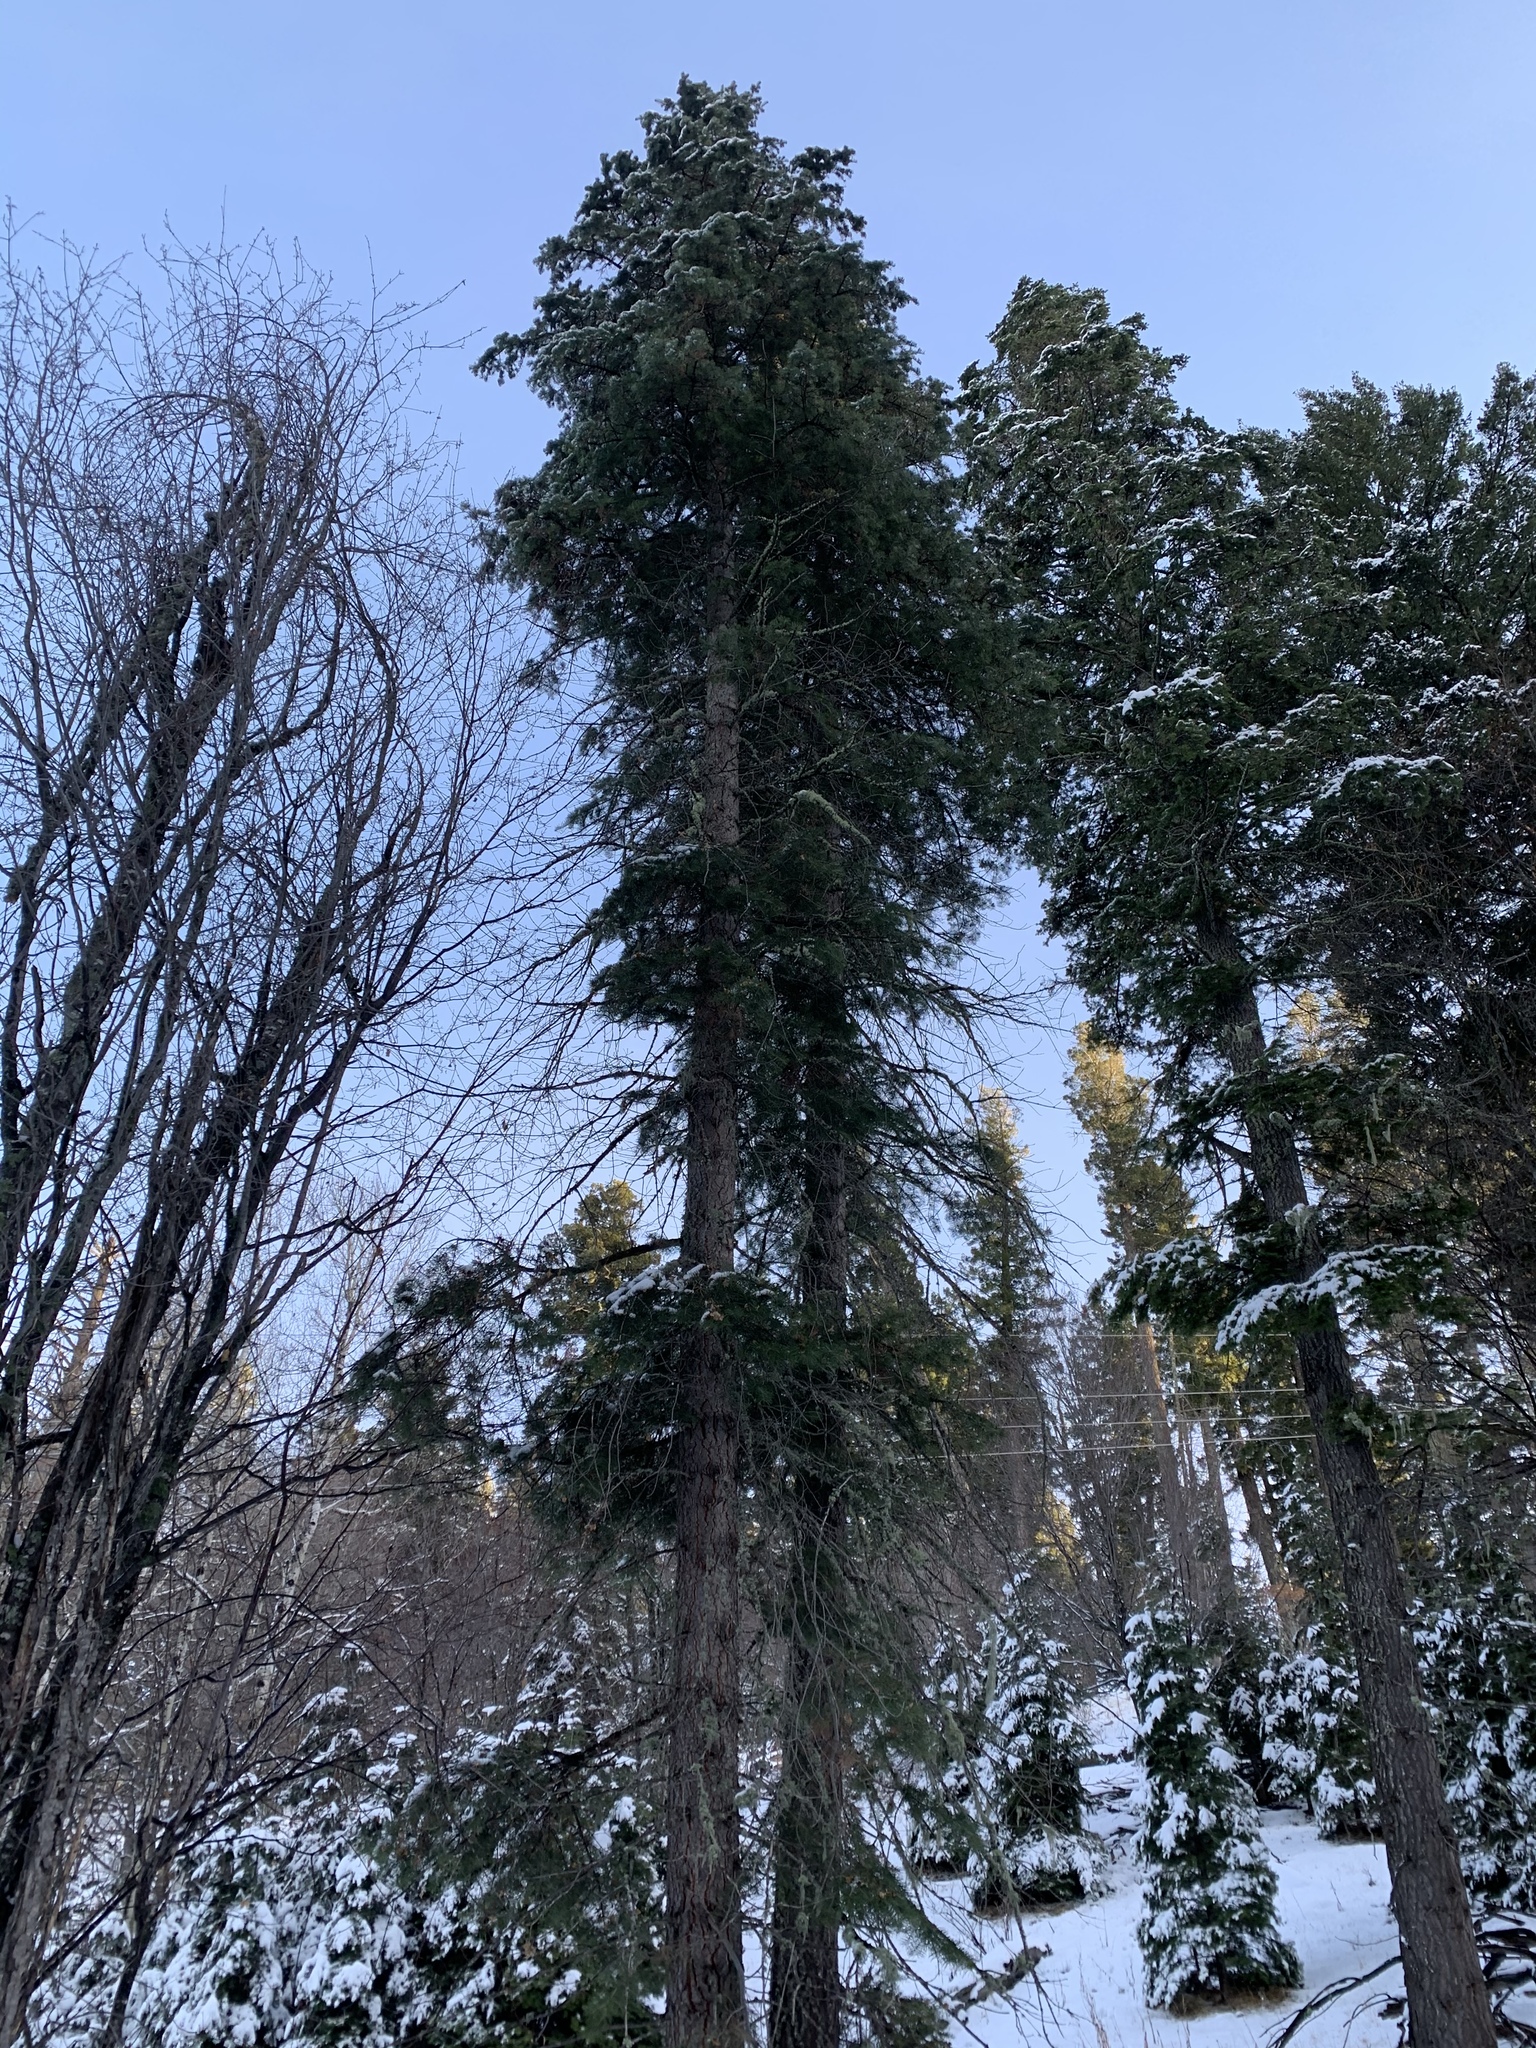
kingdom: Plantae
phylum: Tracheophyta
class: Pinopsida
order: Pinales
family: Pinaceae
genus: Abies
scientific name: Abies concolor
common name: Colorado fir
